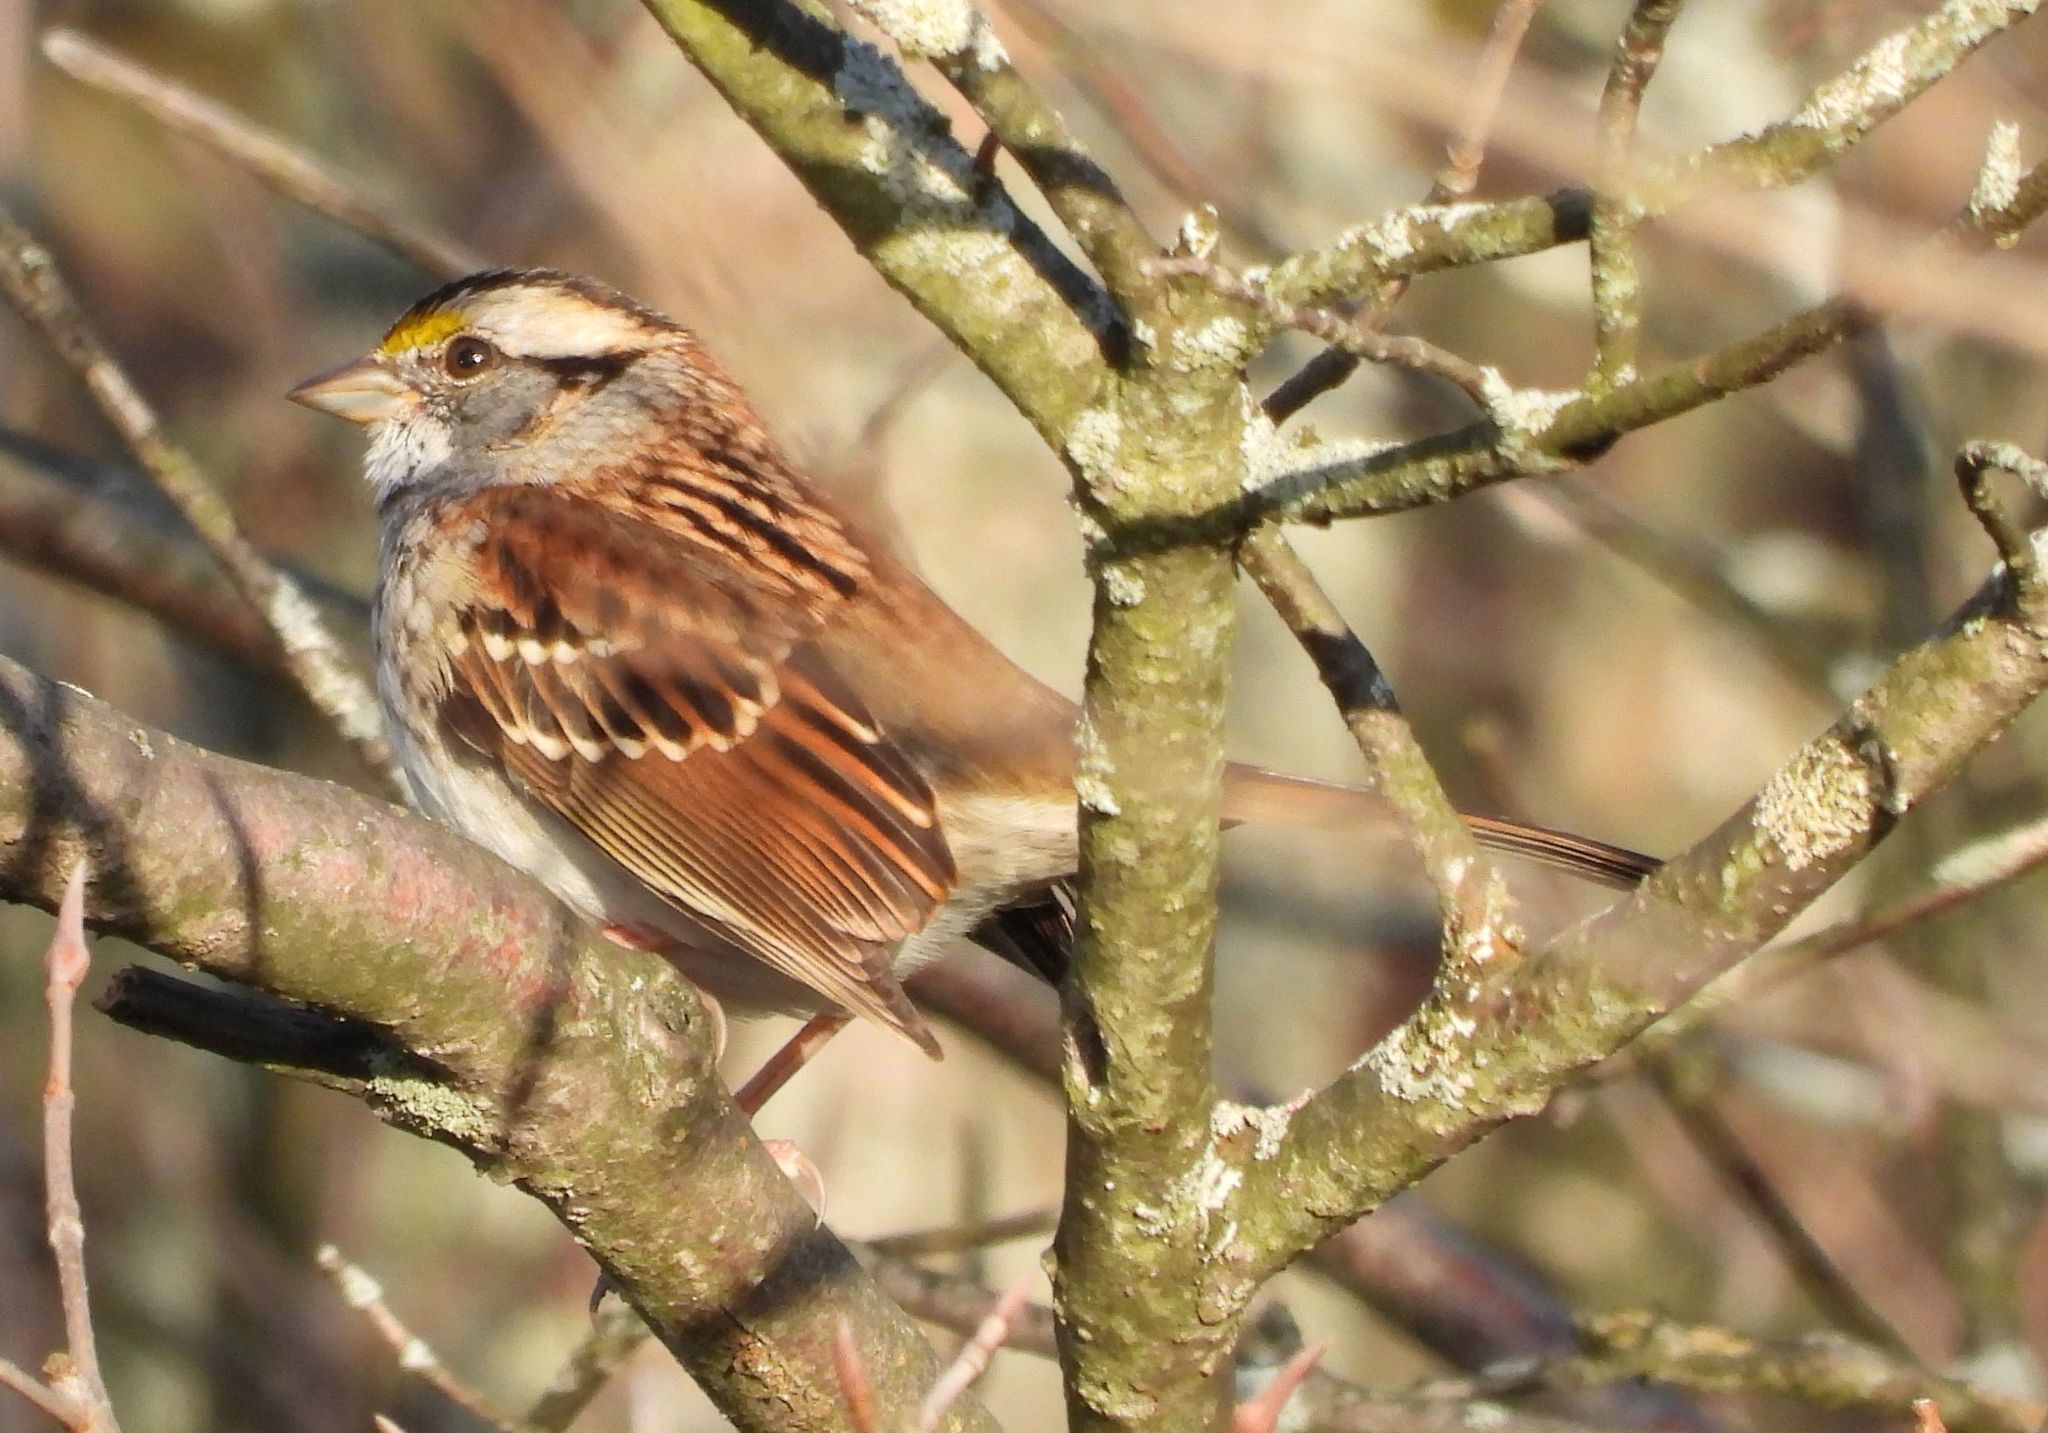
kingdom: Animalia
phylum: Chordata
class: Aves
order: Passeriformes
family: Passerellidae
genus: Zonotrichia
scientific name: Zonotrichia albicollis
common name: White-throated sparrow
